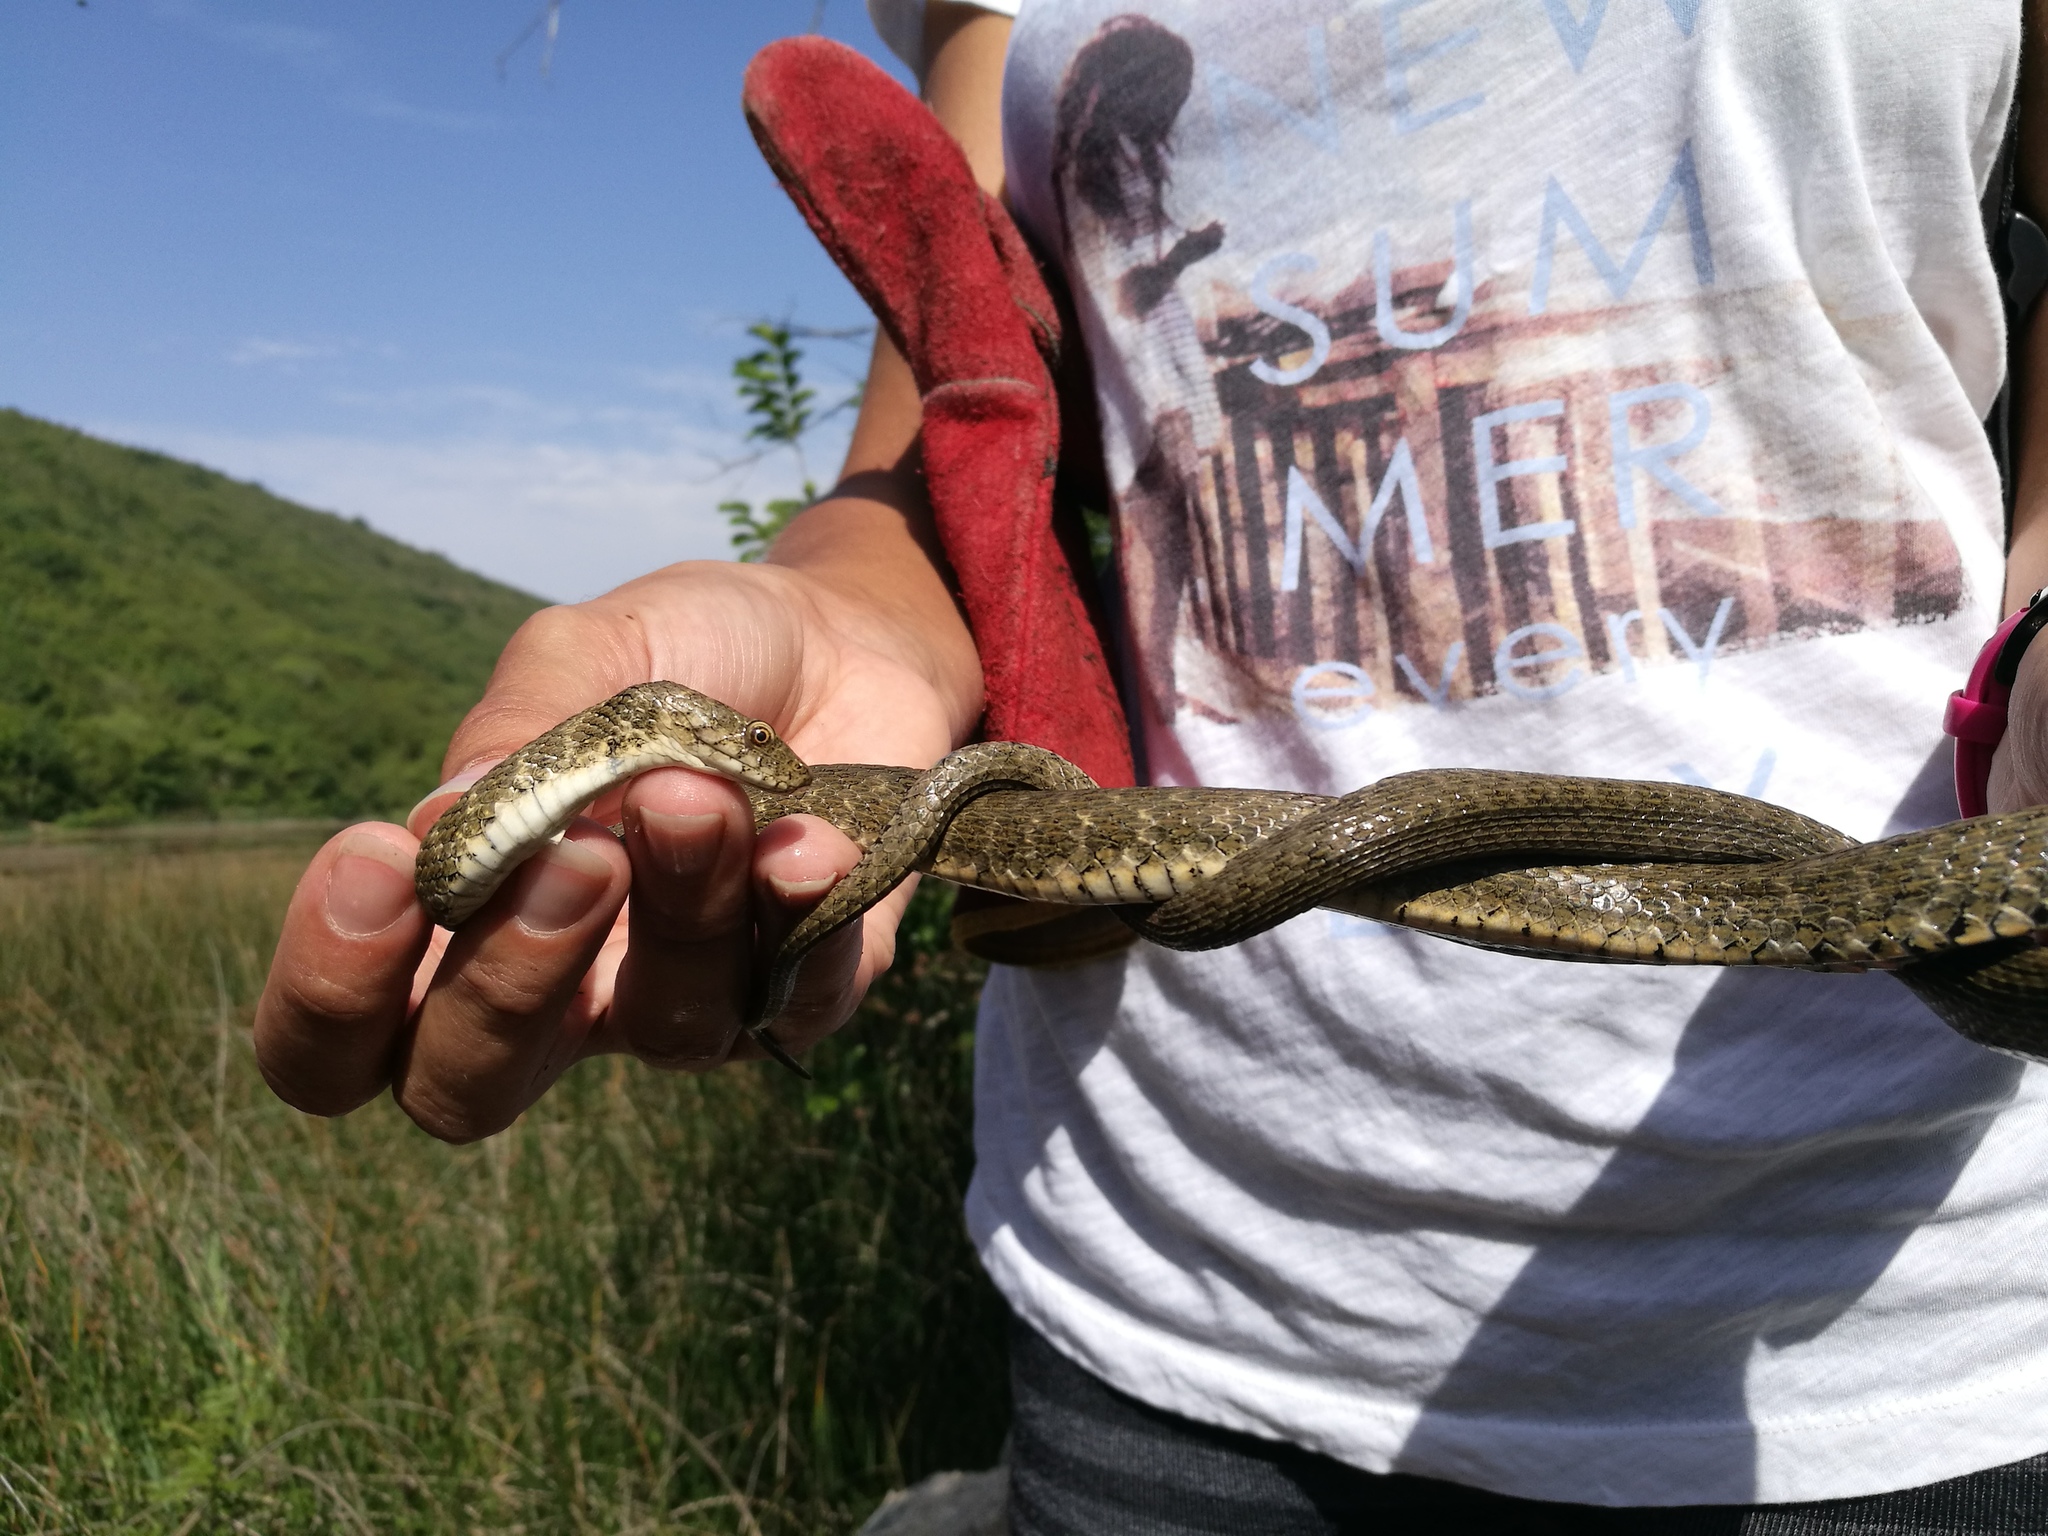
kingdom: Animalia
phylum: Chordata
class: Squamata
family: Colubridae
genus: Natrix
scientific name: Natrix tessellata
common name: Dice snake
